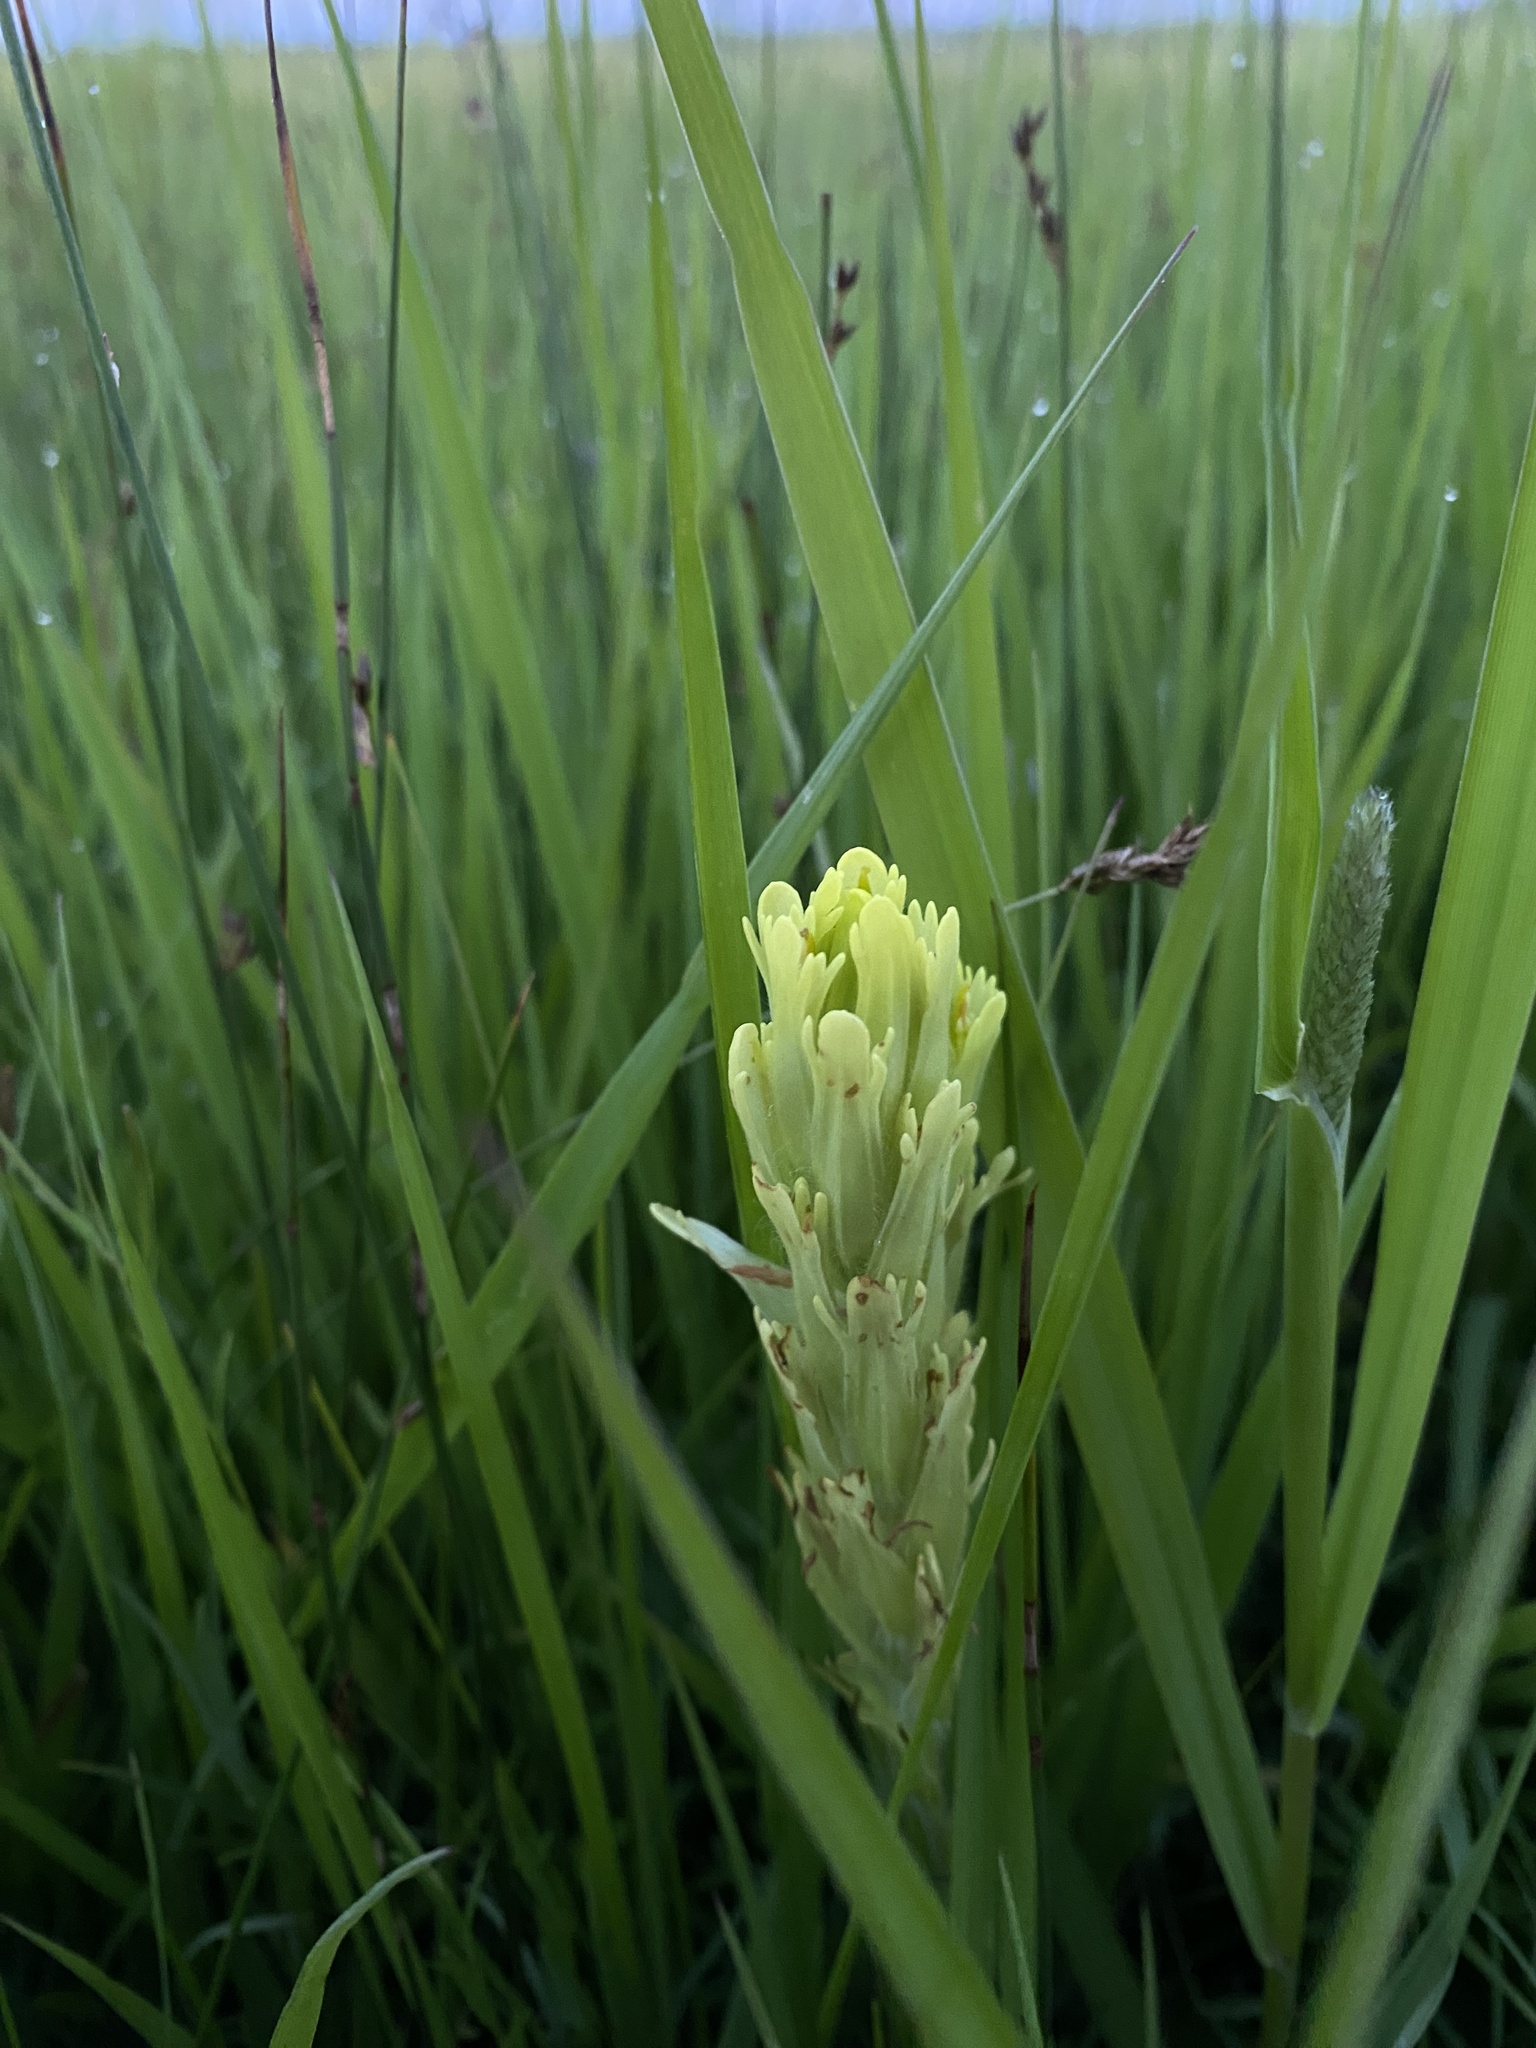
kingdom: Plantae
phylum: Tracheophyta
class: Magnoliopsida
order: Lamiales
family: Orobanchaceae
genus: Castilleja
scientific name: Castilleja cusickii
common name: Cusick's paintbrush
